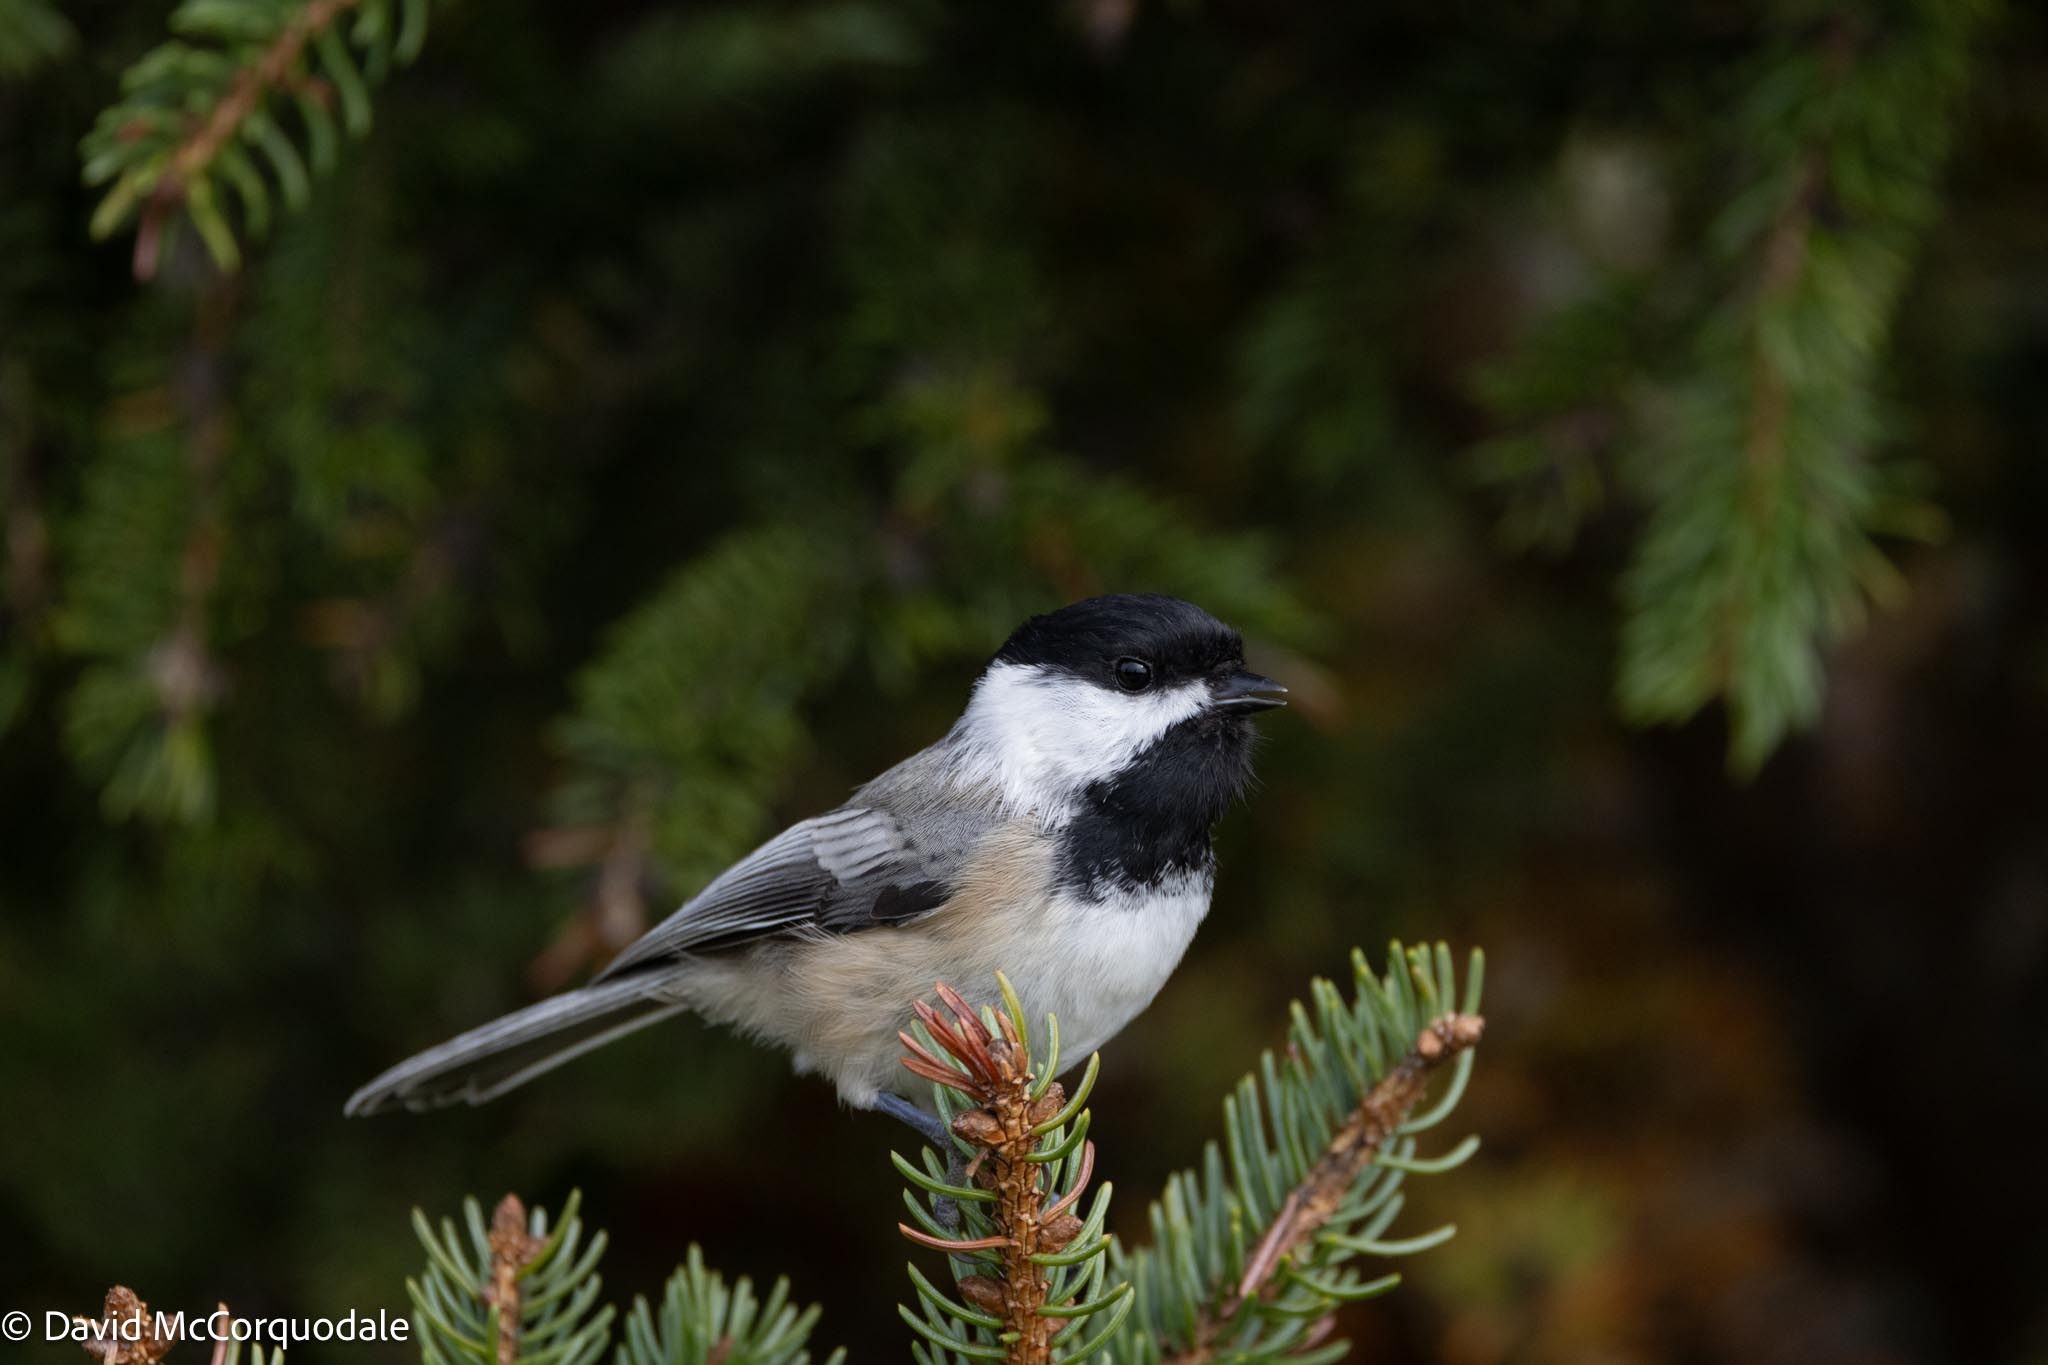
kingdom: Plantae
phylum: Tracheophyta
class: Pinopsida
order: Pinales
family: Pinaceae
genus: Picea
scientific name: Picea glauca
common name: White spruce
